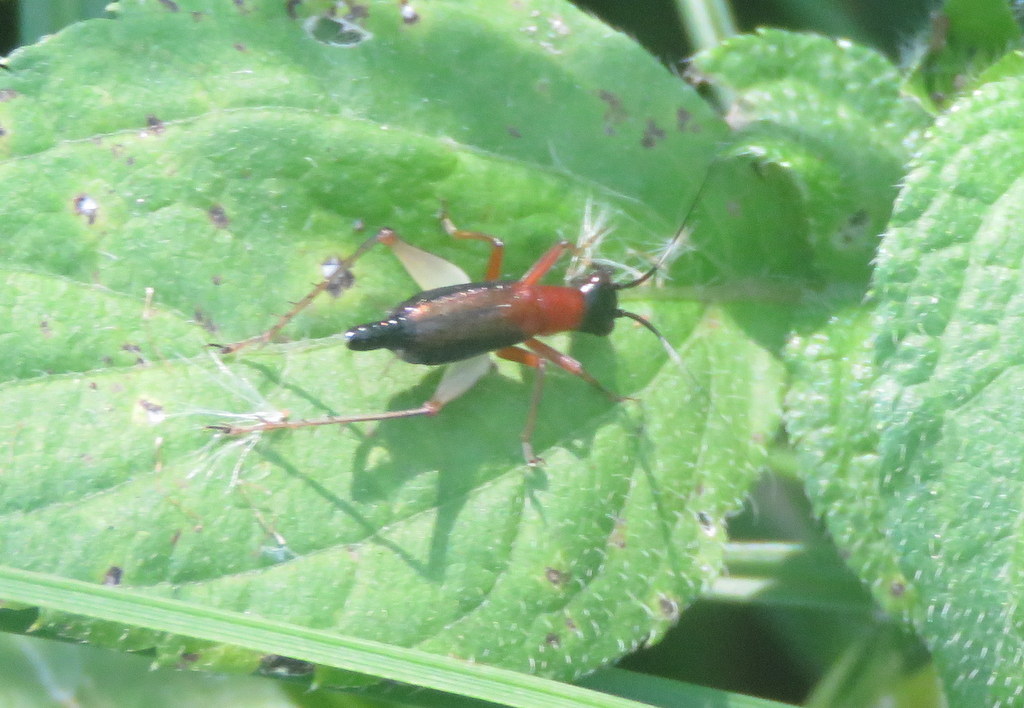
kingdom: Animalia
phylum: Arthropoda
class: Insecta
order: Orthoptera
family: Trigonidiidae
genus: Cranistus
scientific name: Cranistus colliurides
